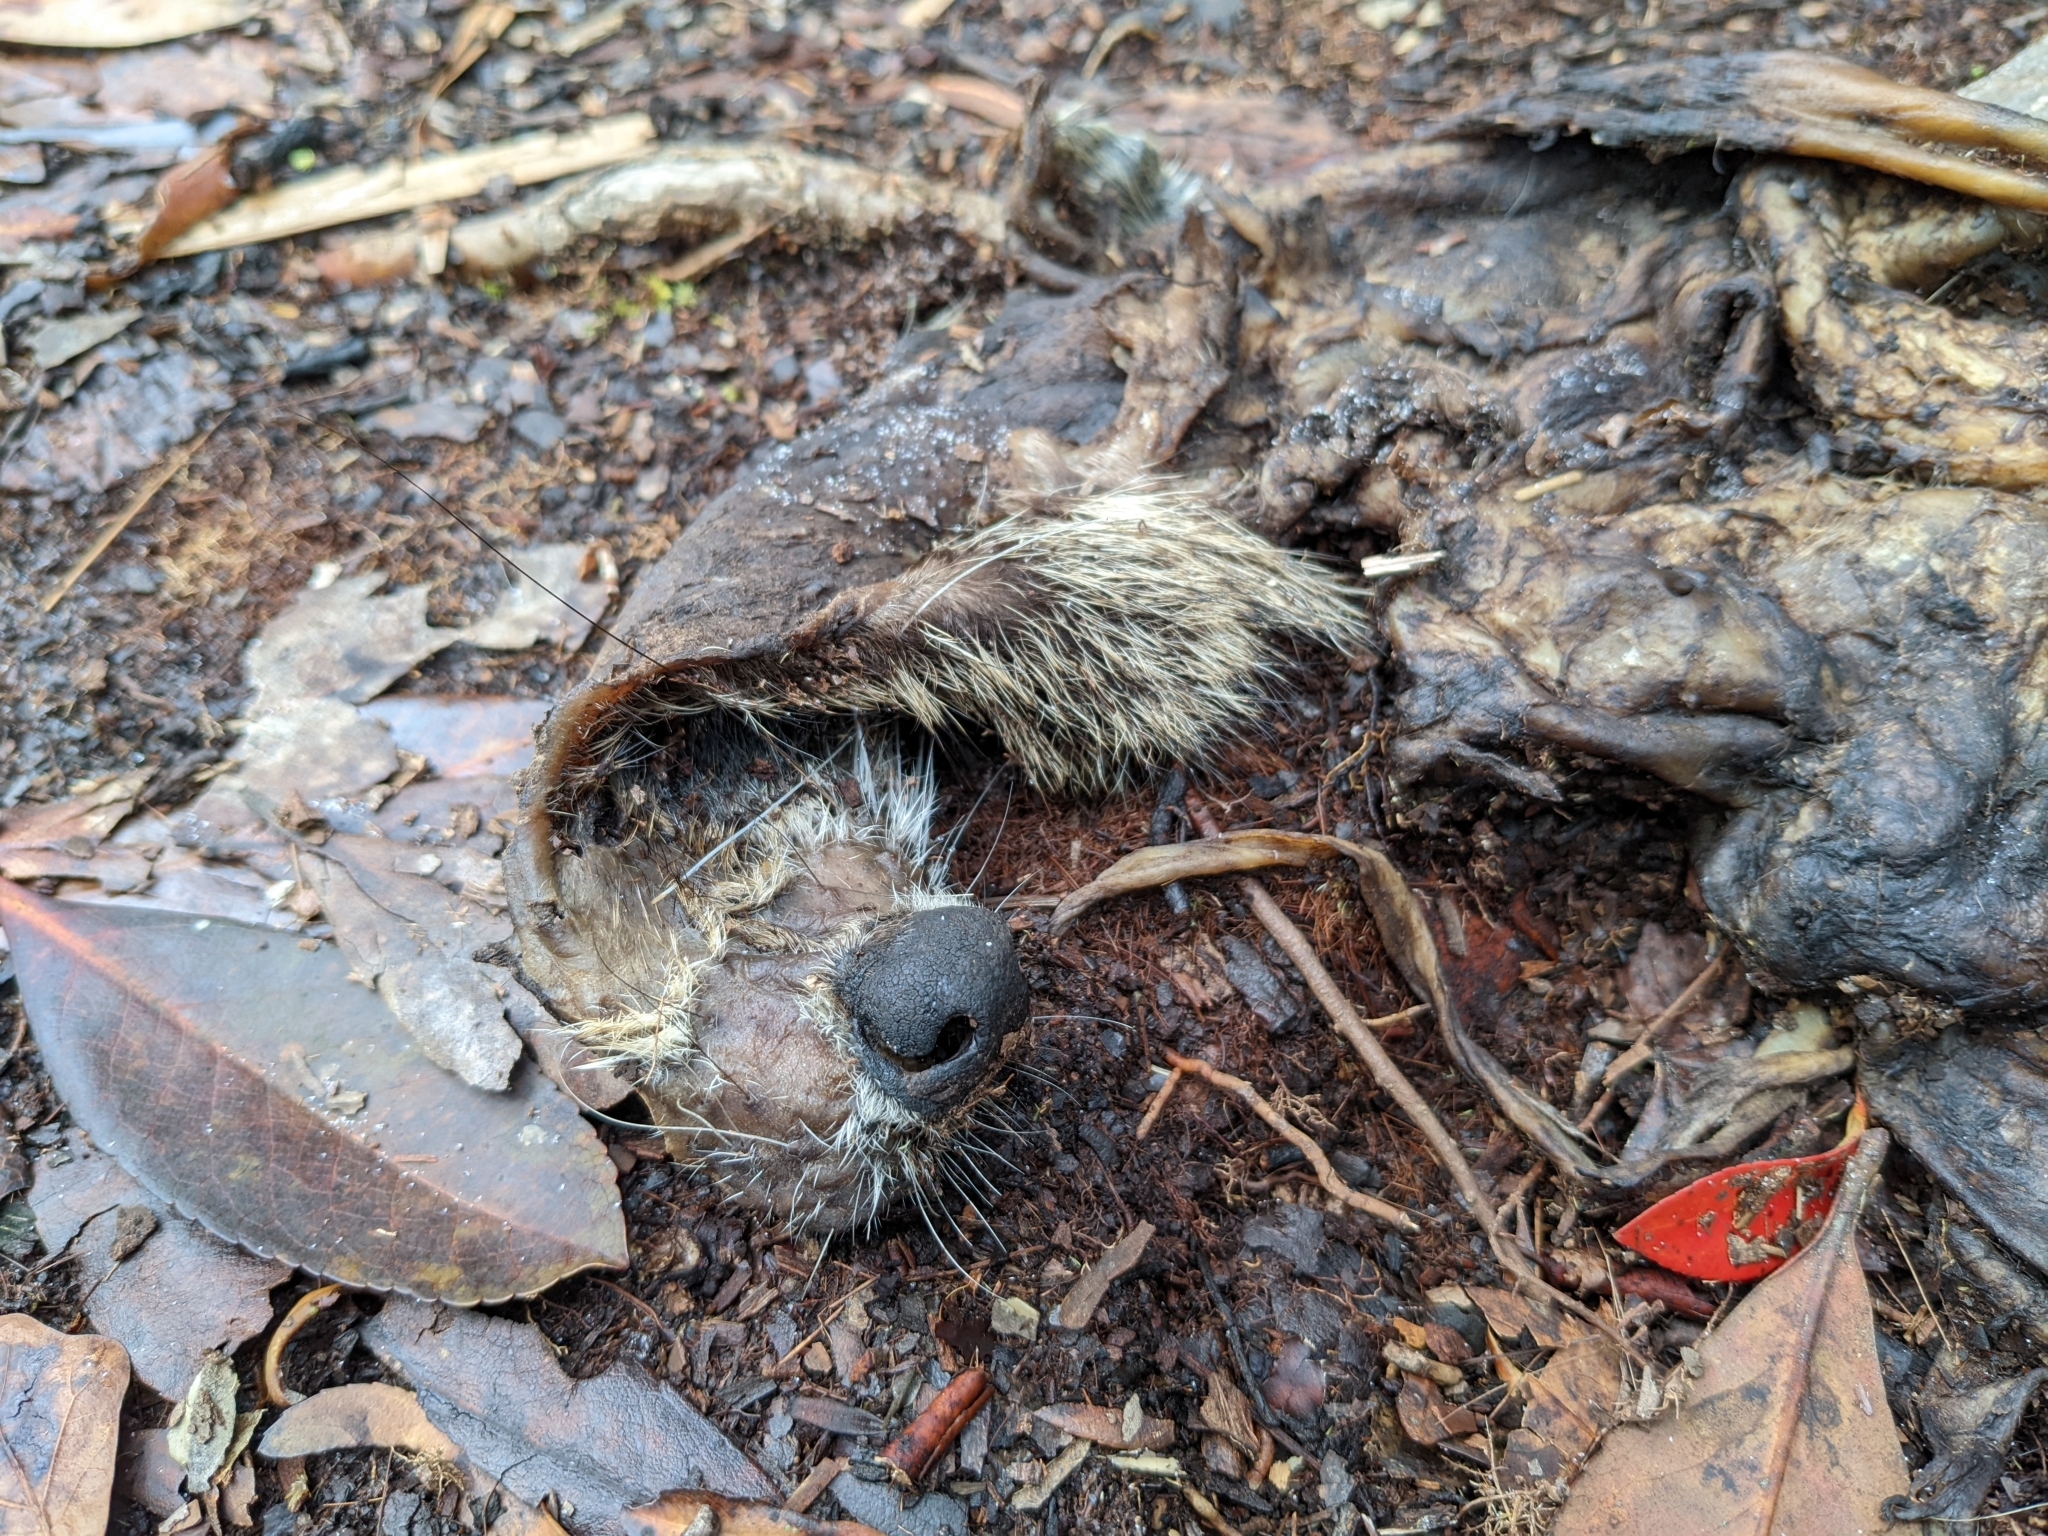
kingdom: Animalia
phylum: Chordata
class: Mammalia
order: Carnivora
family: Procyonidae
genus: Procyon
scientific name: Procyon lotor
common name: Raccoon
